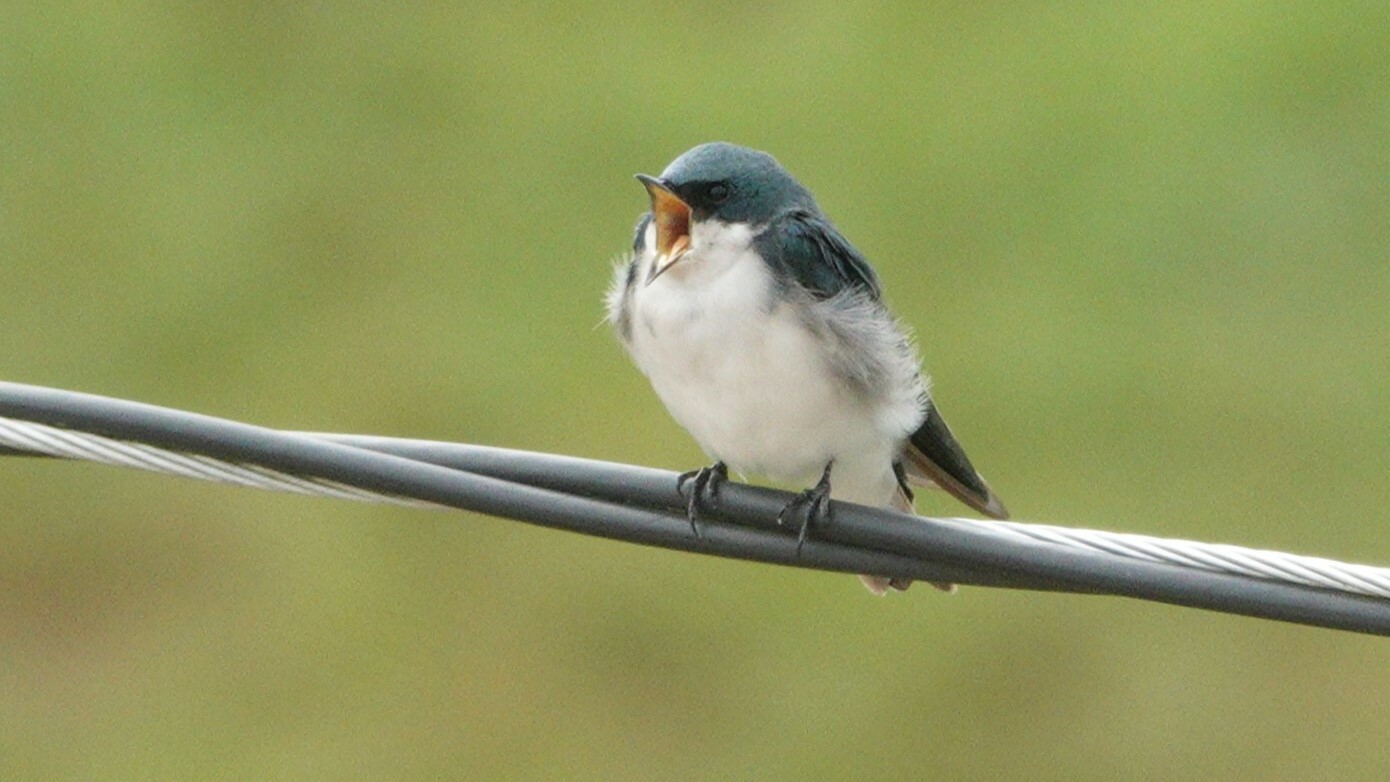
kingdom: Animalia
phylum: Chordata
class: Aves
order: Passeriformes
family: Hirundinidae
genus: Tachycineta
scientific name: Tachycineta bicolor
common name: Tree swallow
